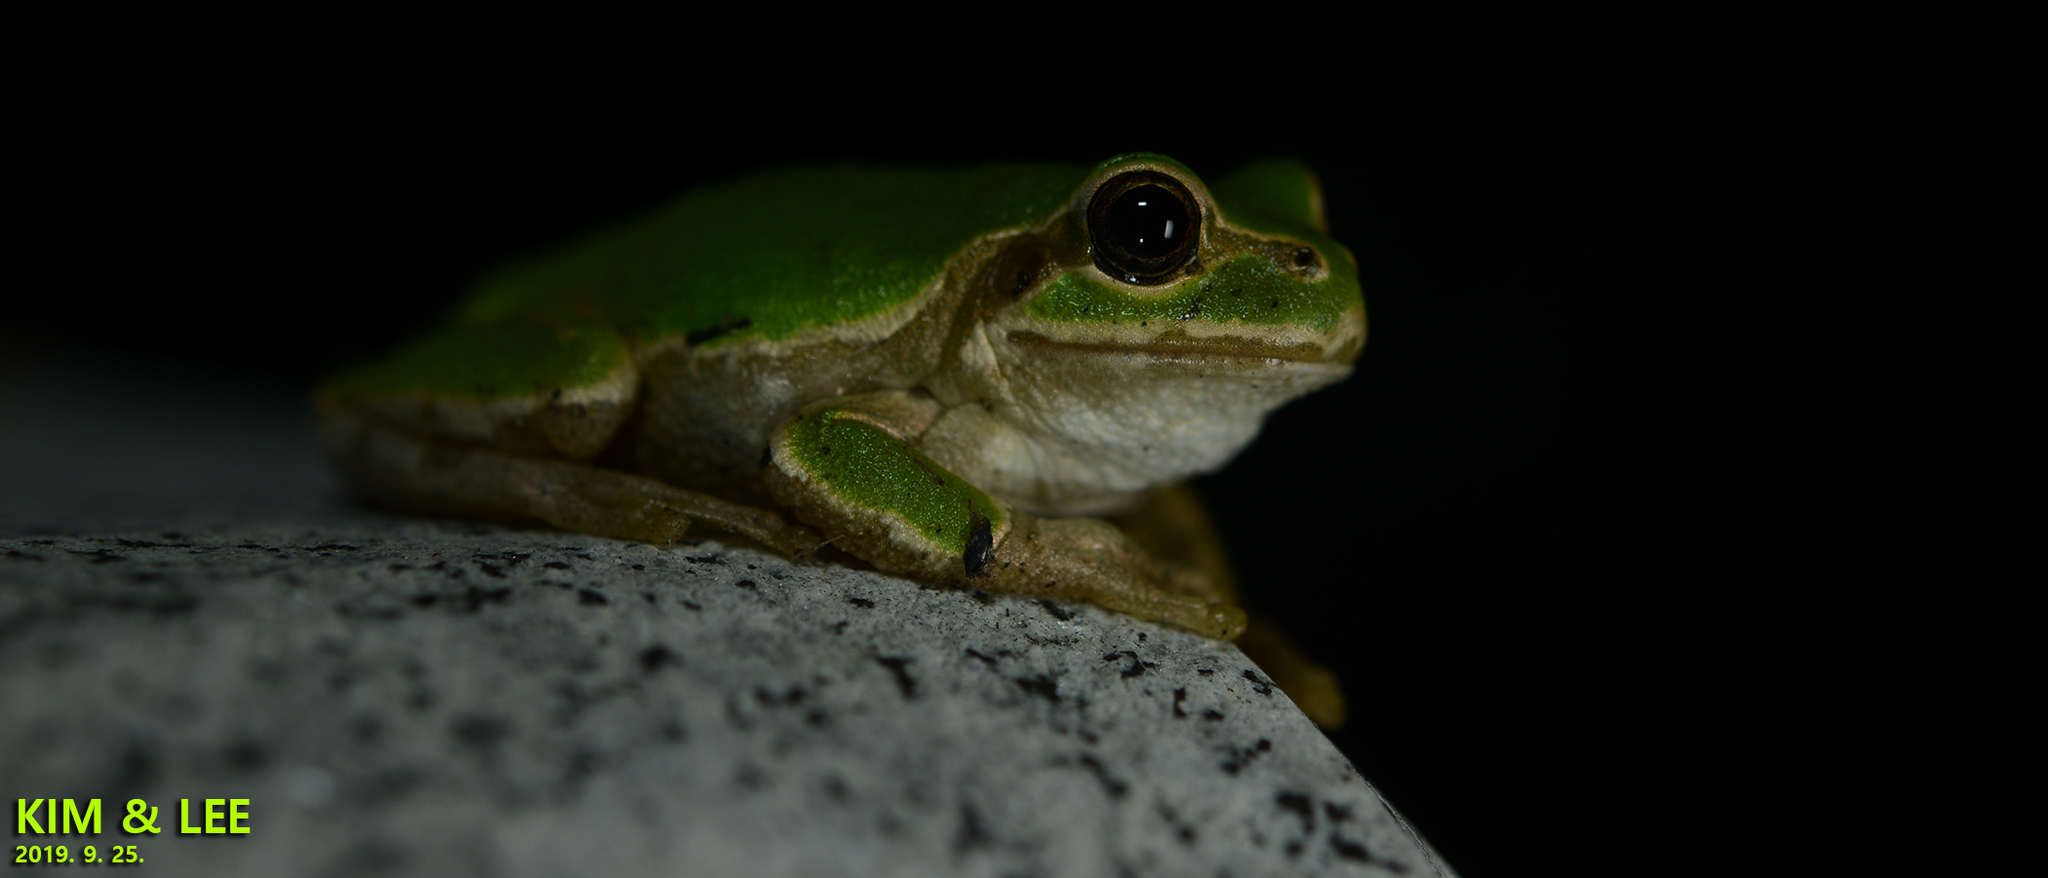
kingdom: Animalia
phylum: Chordata
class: Amphibia
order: Anura
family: Hylidae
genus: Dryophytes
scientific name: Dryophytes japonicus
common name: Japanese treefrog
